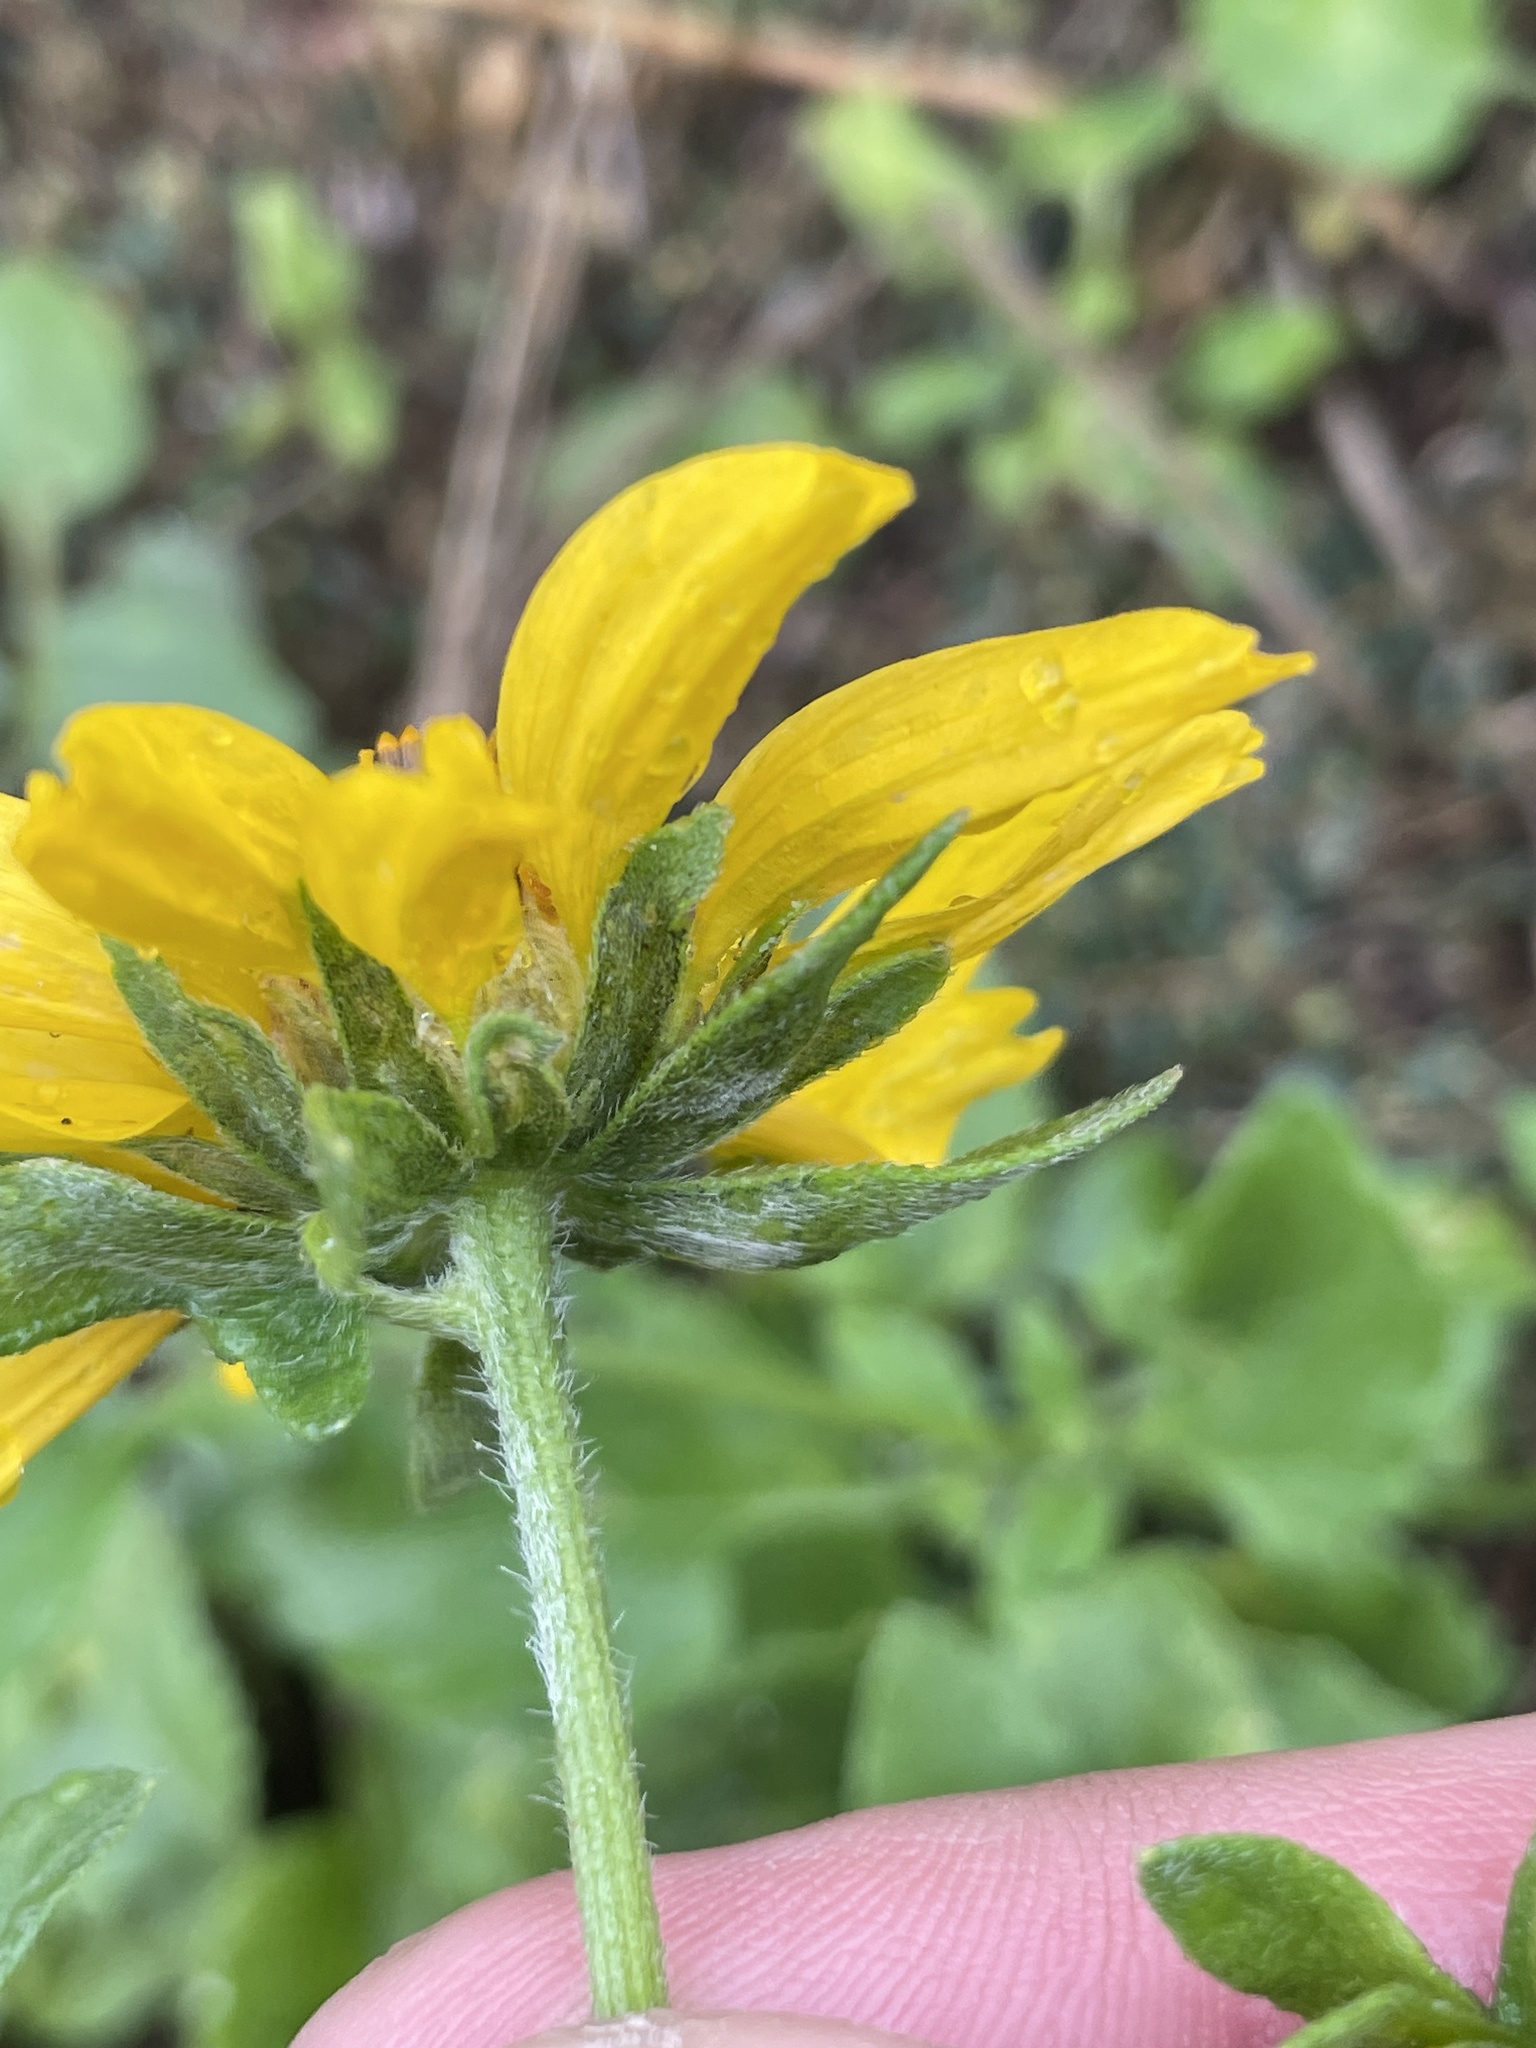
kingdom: Plantae
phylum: Tracheophyta
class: Magnoliopsida
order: Asterales
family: Asteraceae
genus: Verbesina
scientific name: Verbesina encelioides
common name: Golden crownbeard
